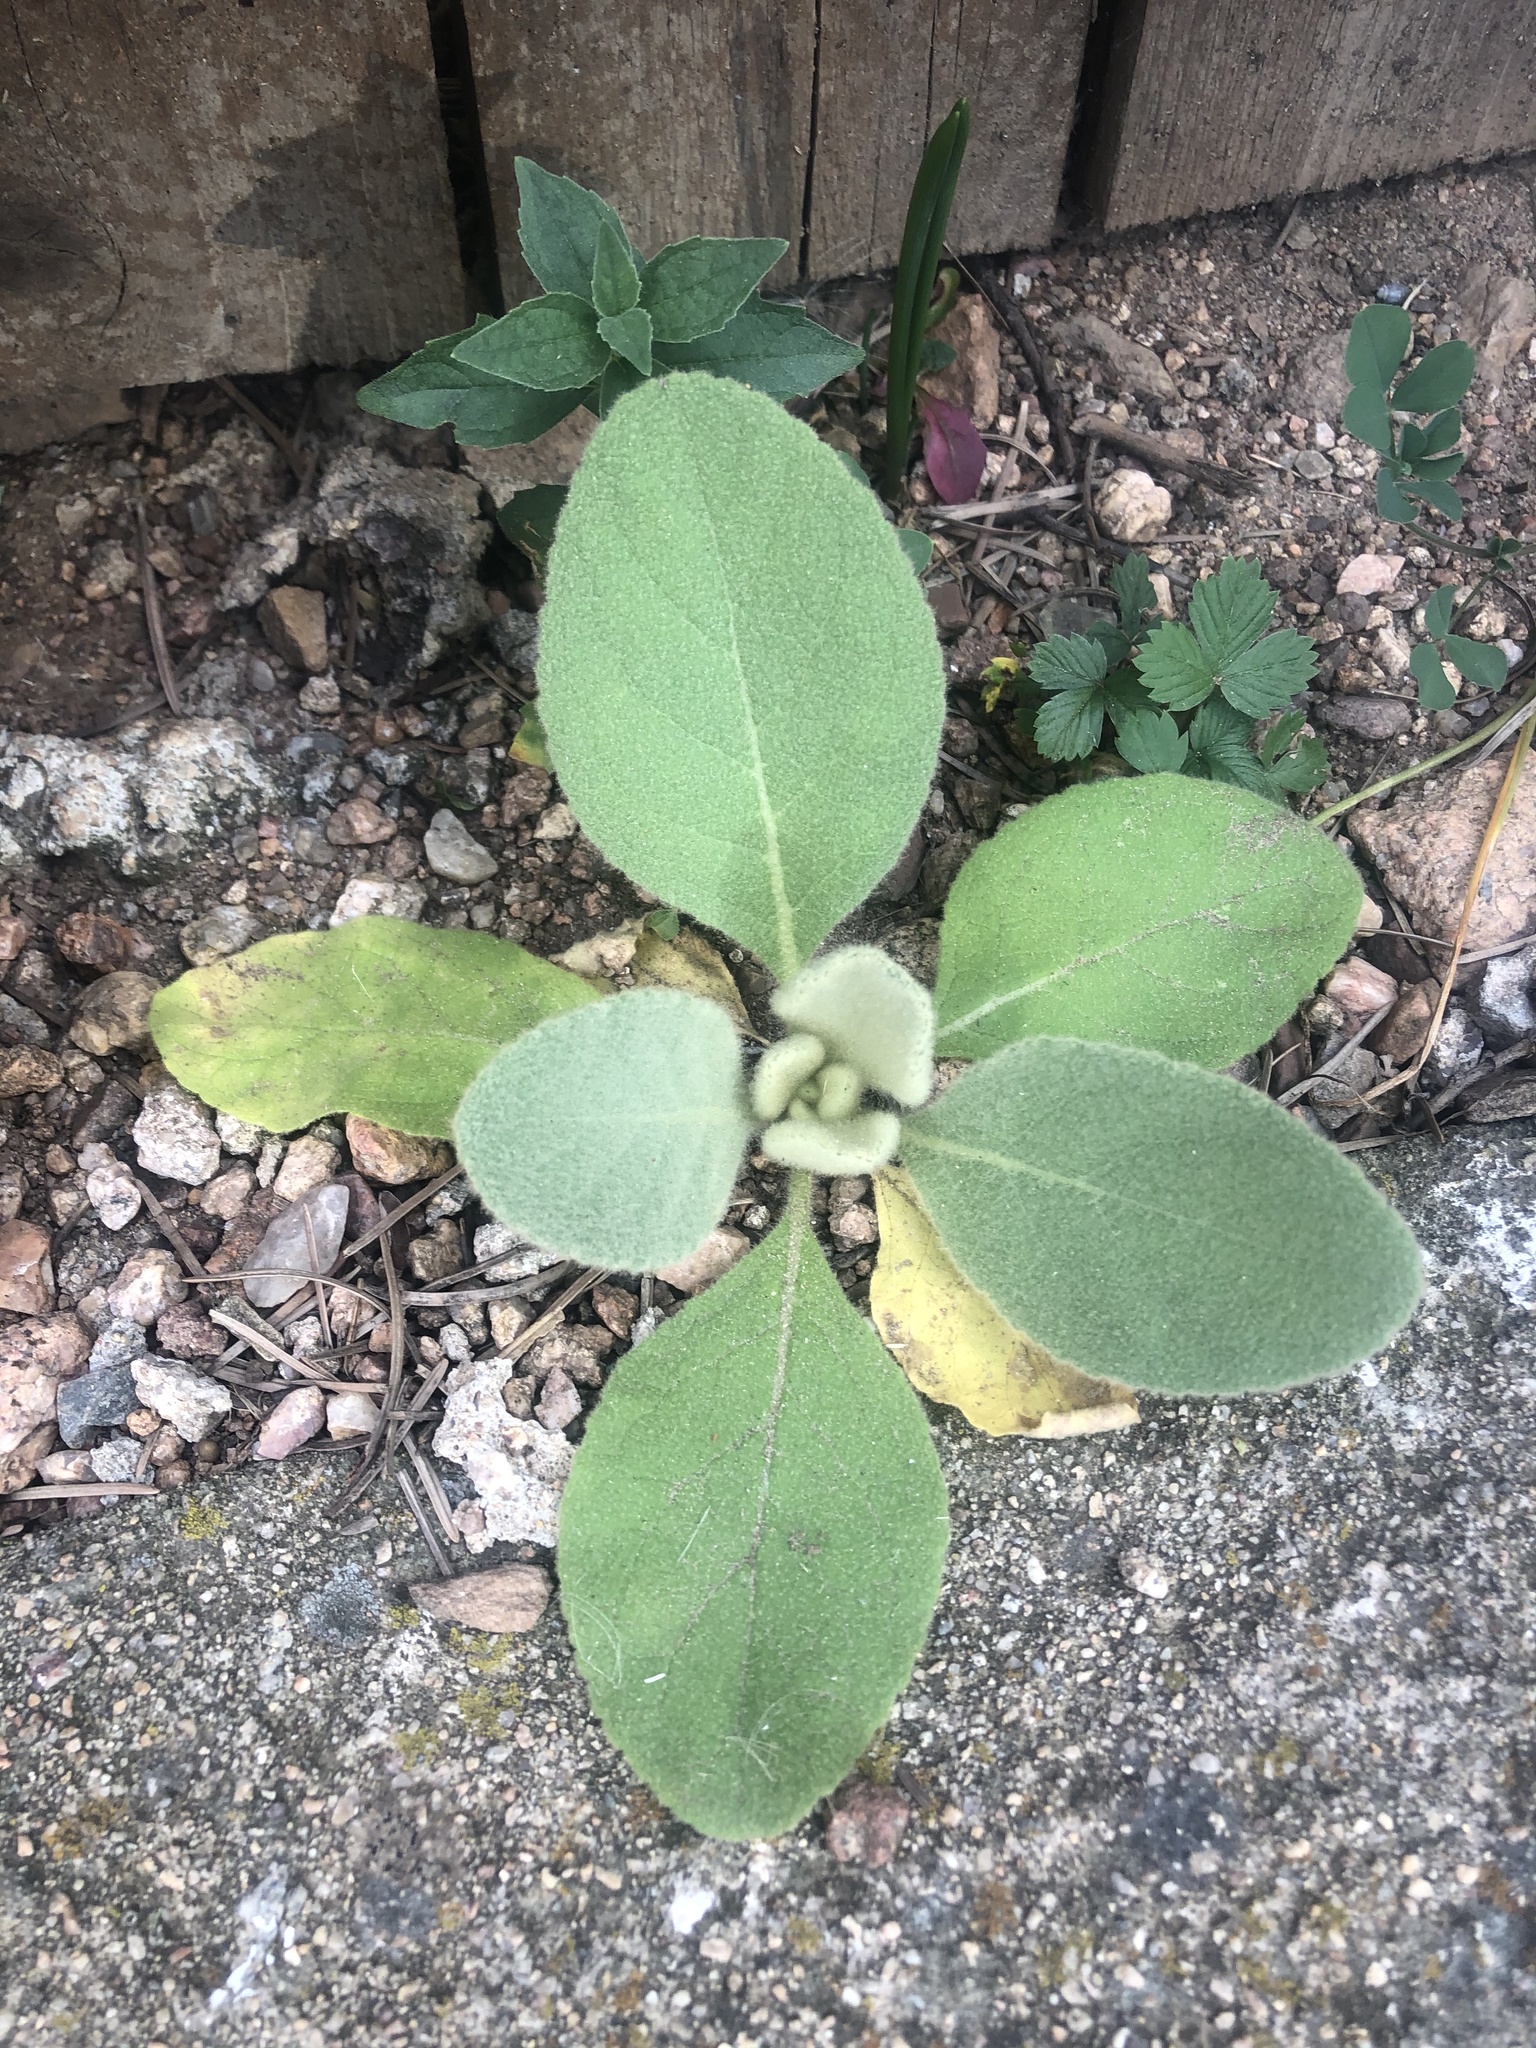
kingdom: Plantae
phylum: Tracheophyta
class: Magnoliopsida
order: Lamiales
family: Scrophulariaceae
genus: Verbascum
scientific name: Verbascum thapsus
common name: Common mullein
